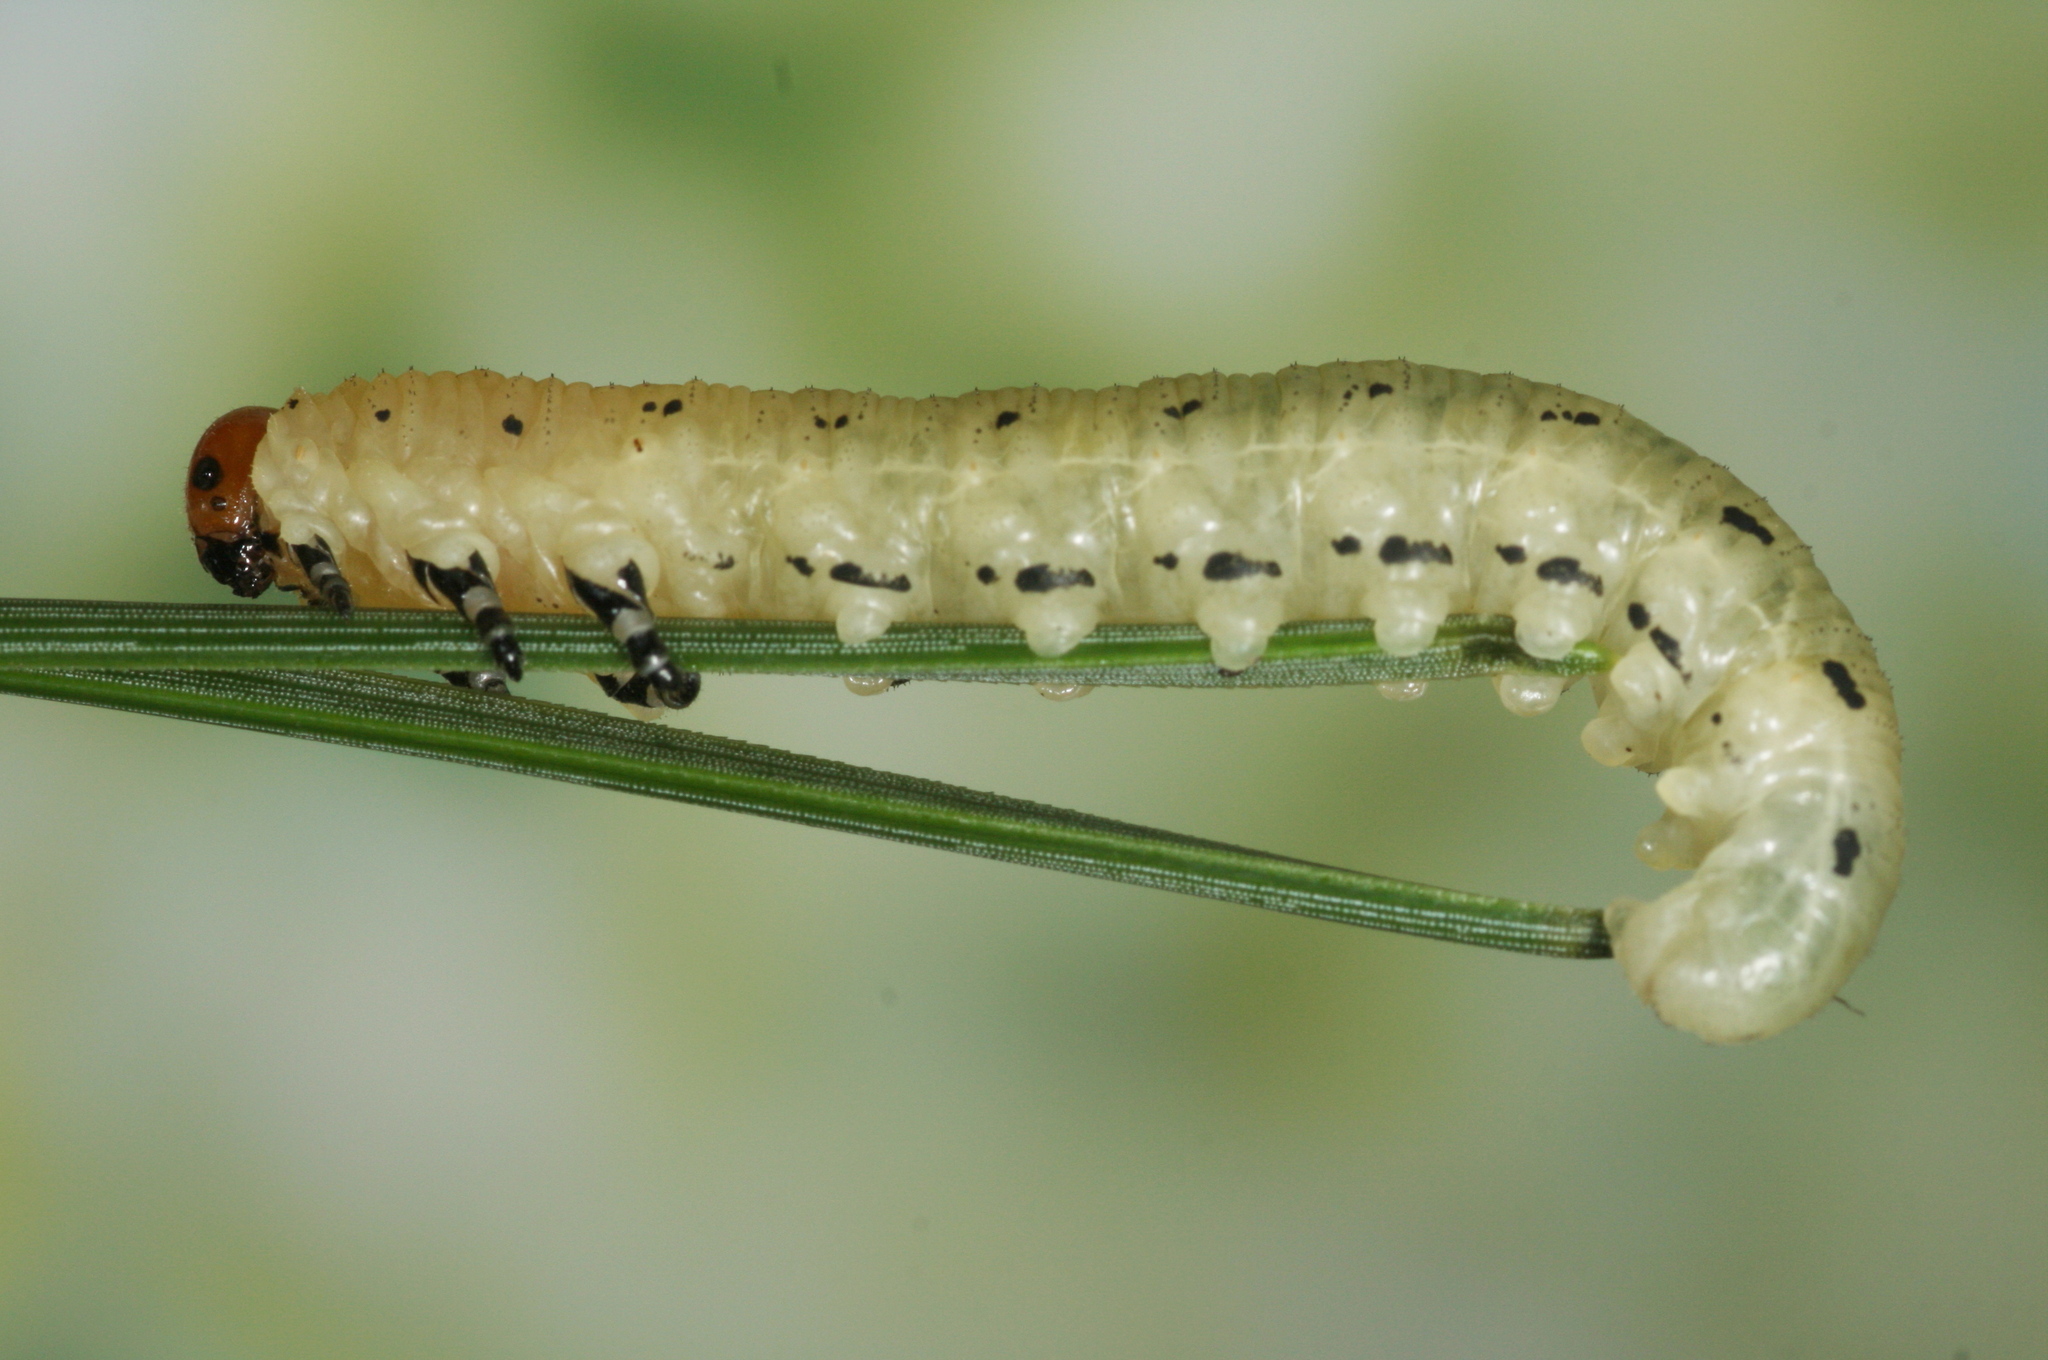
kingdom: Animalia
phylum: Arthropoda
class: Insecta
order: Hymenoptera
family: Diprionidae
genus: Diprion
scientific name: Diprion pini
